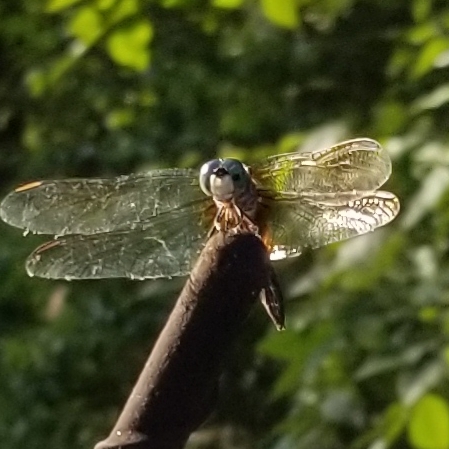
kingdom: Animalia
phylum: Arthropoda
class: Insecta
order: Odonata
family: Libellulidae
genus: Pachydiplax
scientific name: Pachydiplax longipennis
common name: Blue dasher
